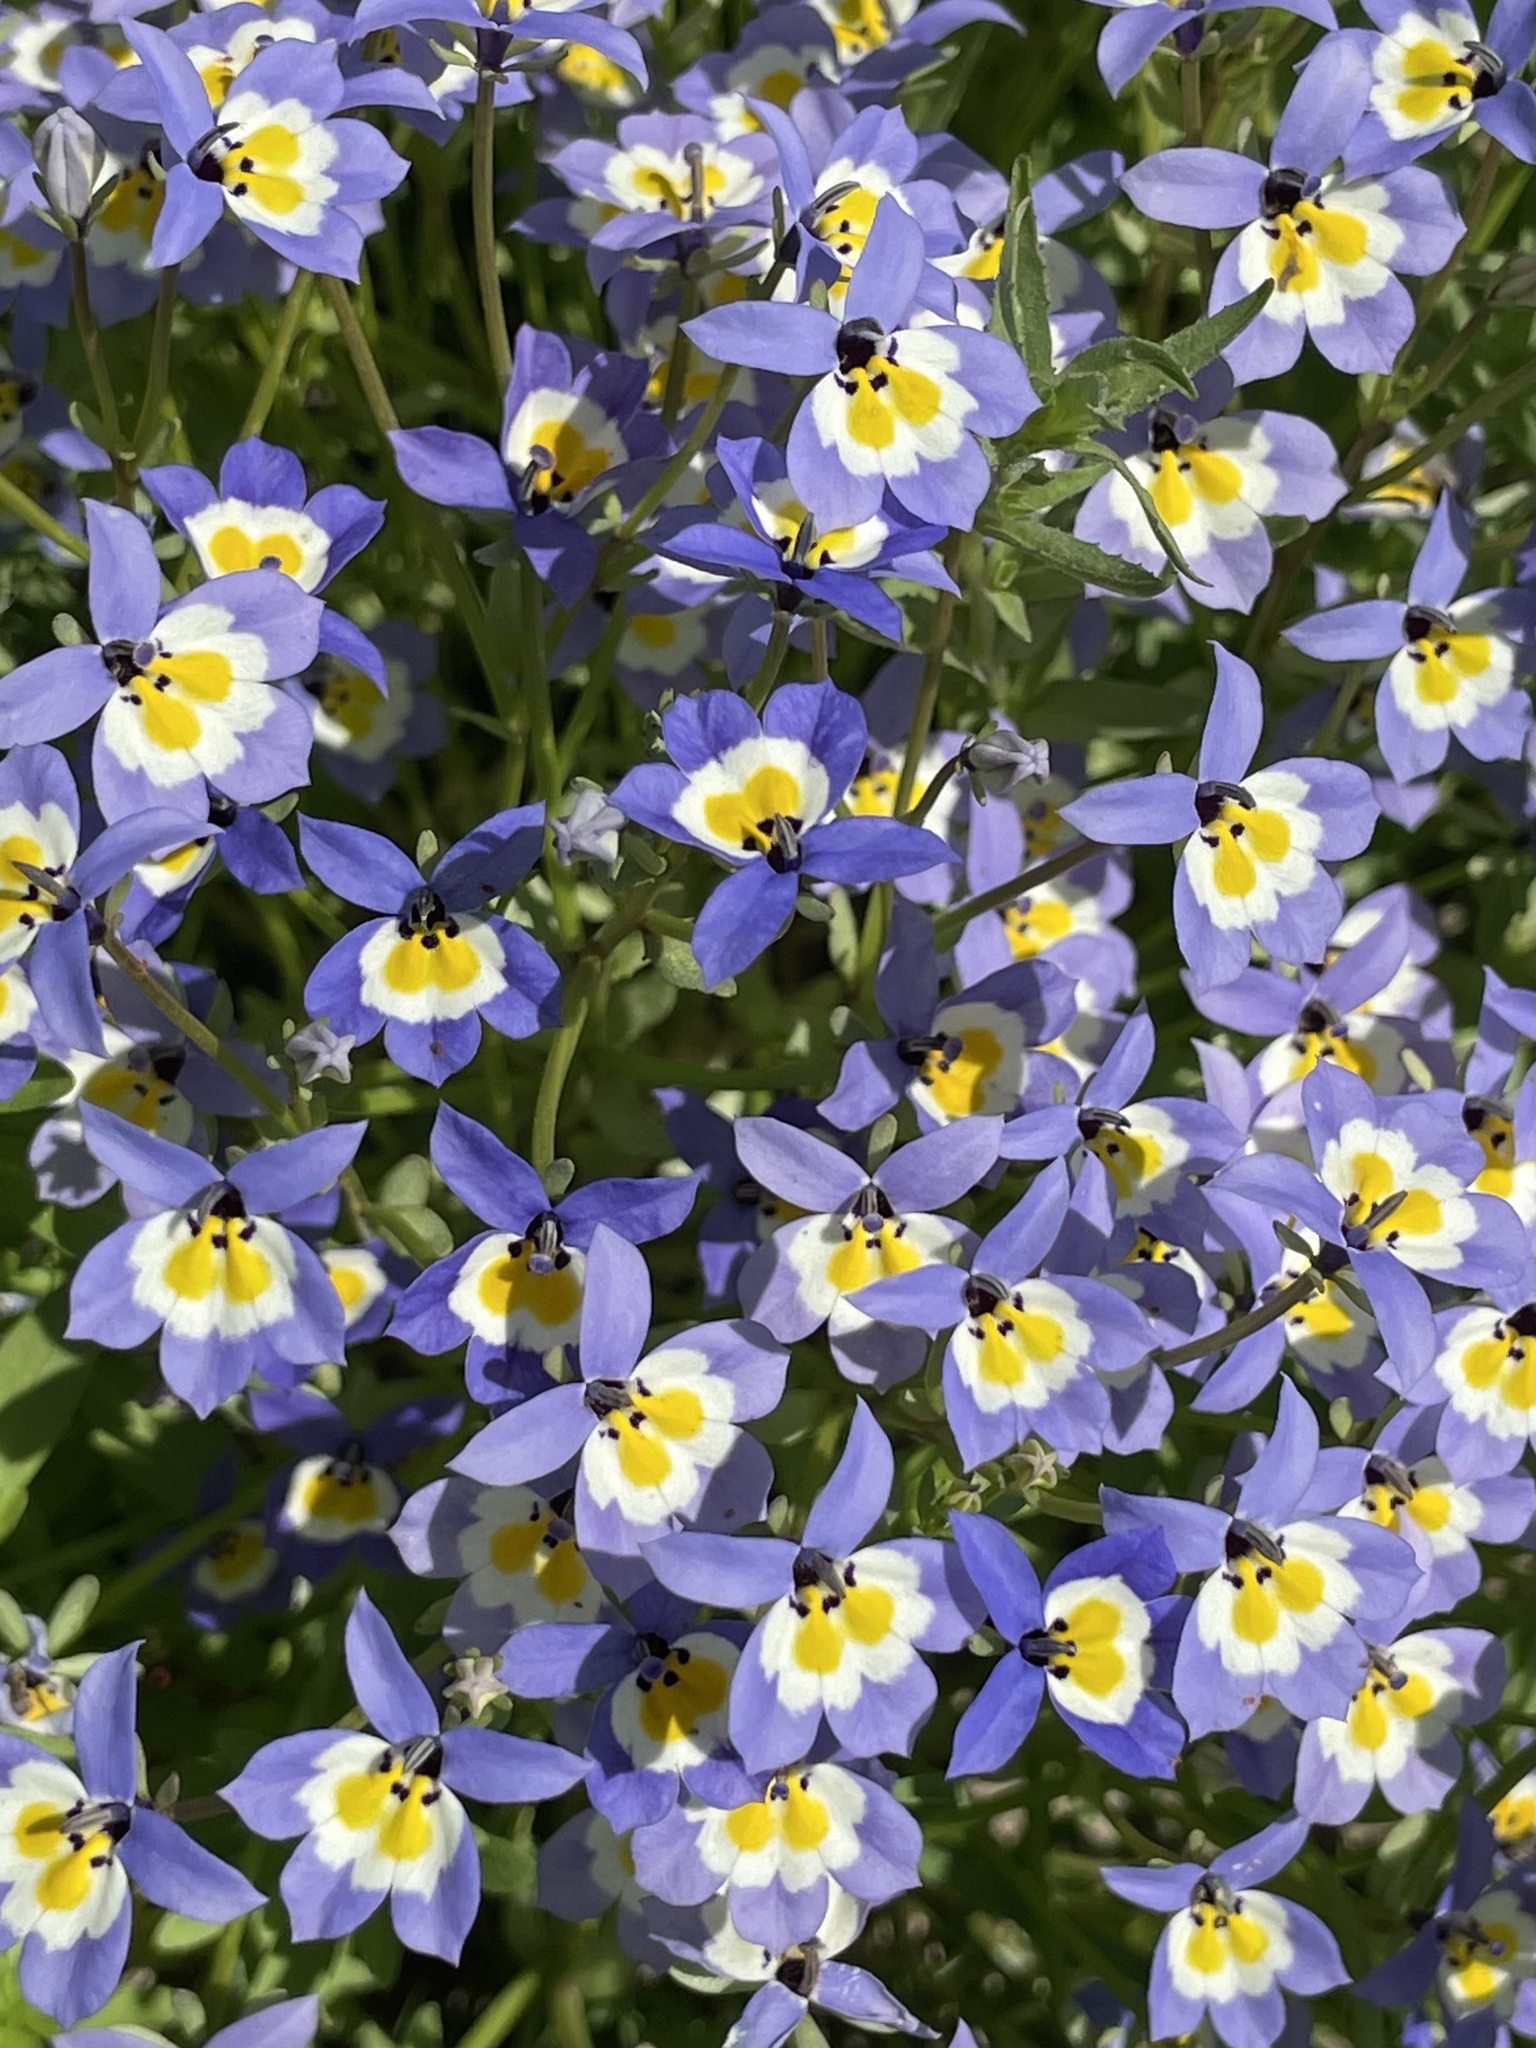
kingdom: Plantae
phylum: Tracheophyta
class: Magnoliopsida
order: Asterales
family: Campanulaceae
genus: Downingia
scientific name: Downingia pulchella
